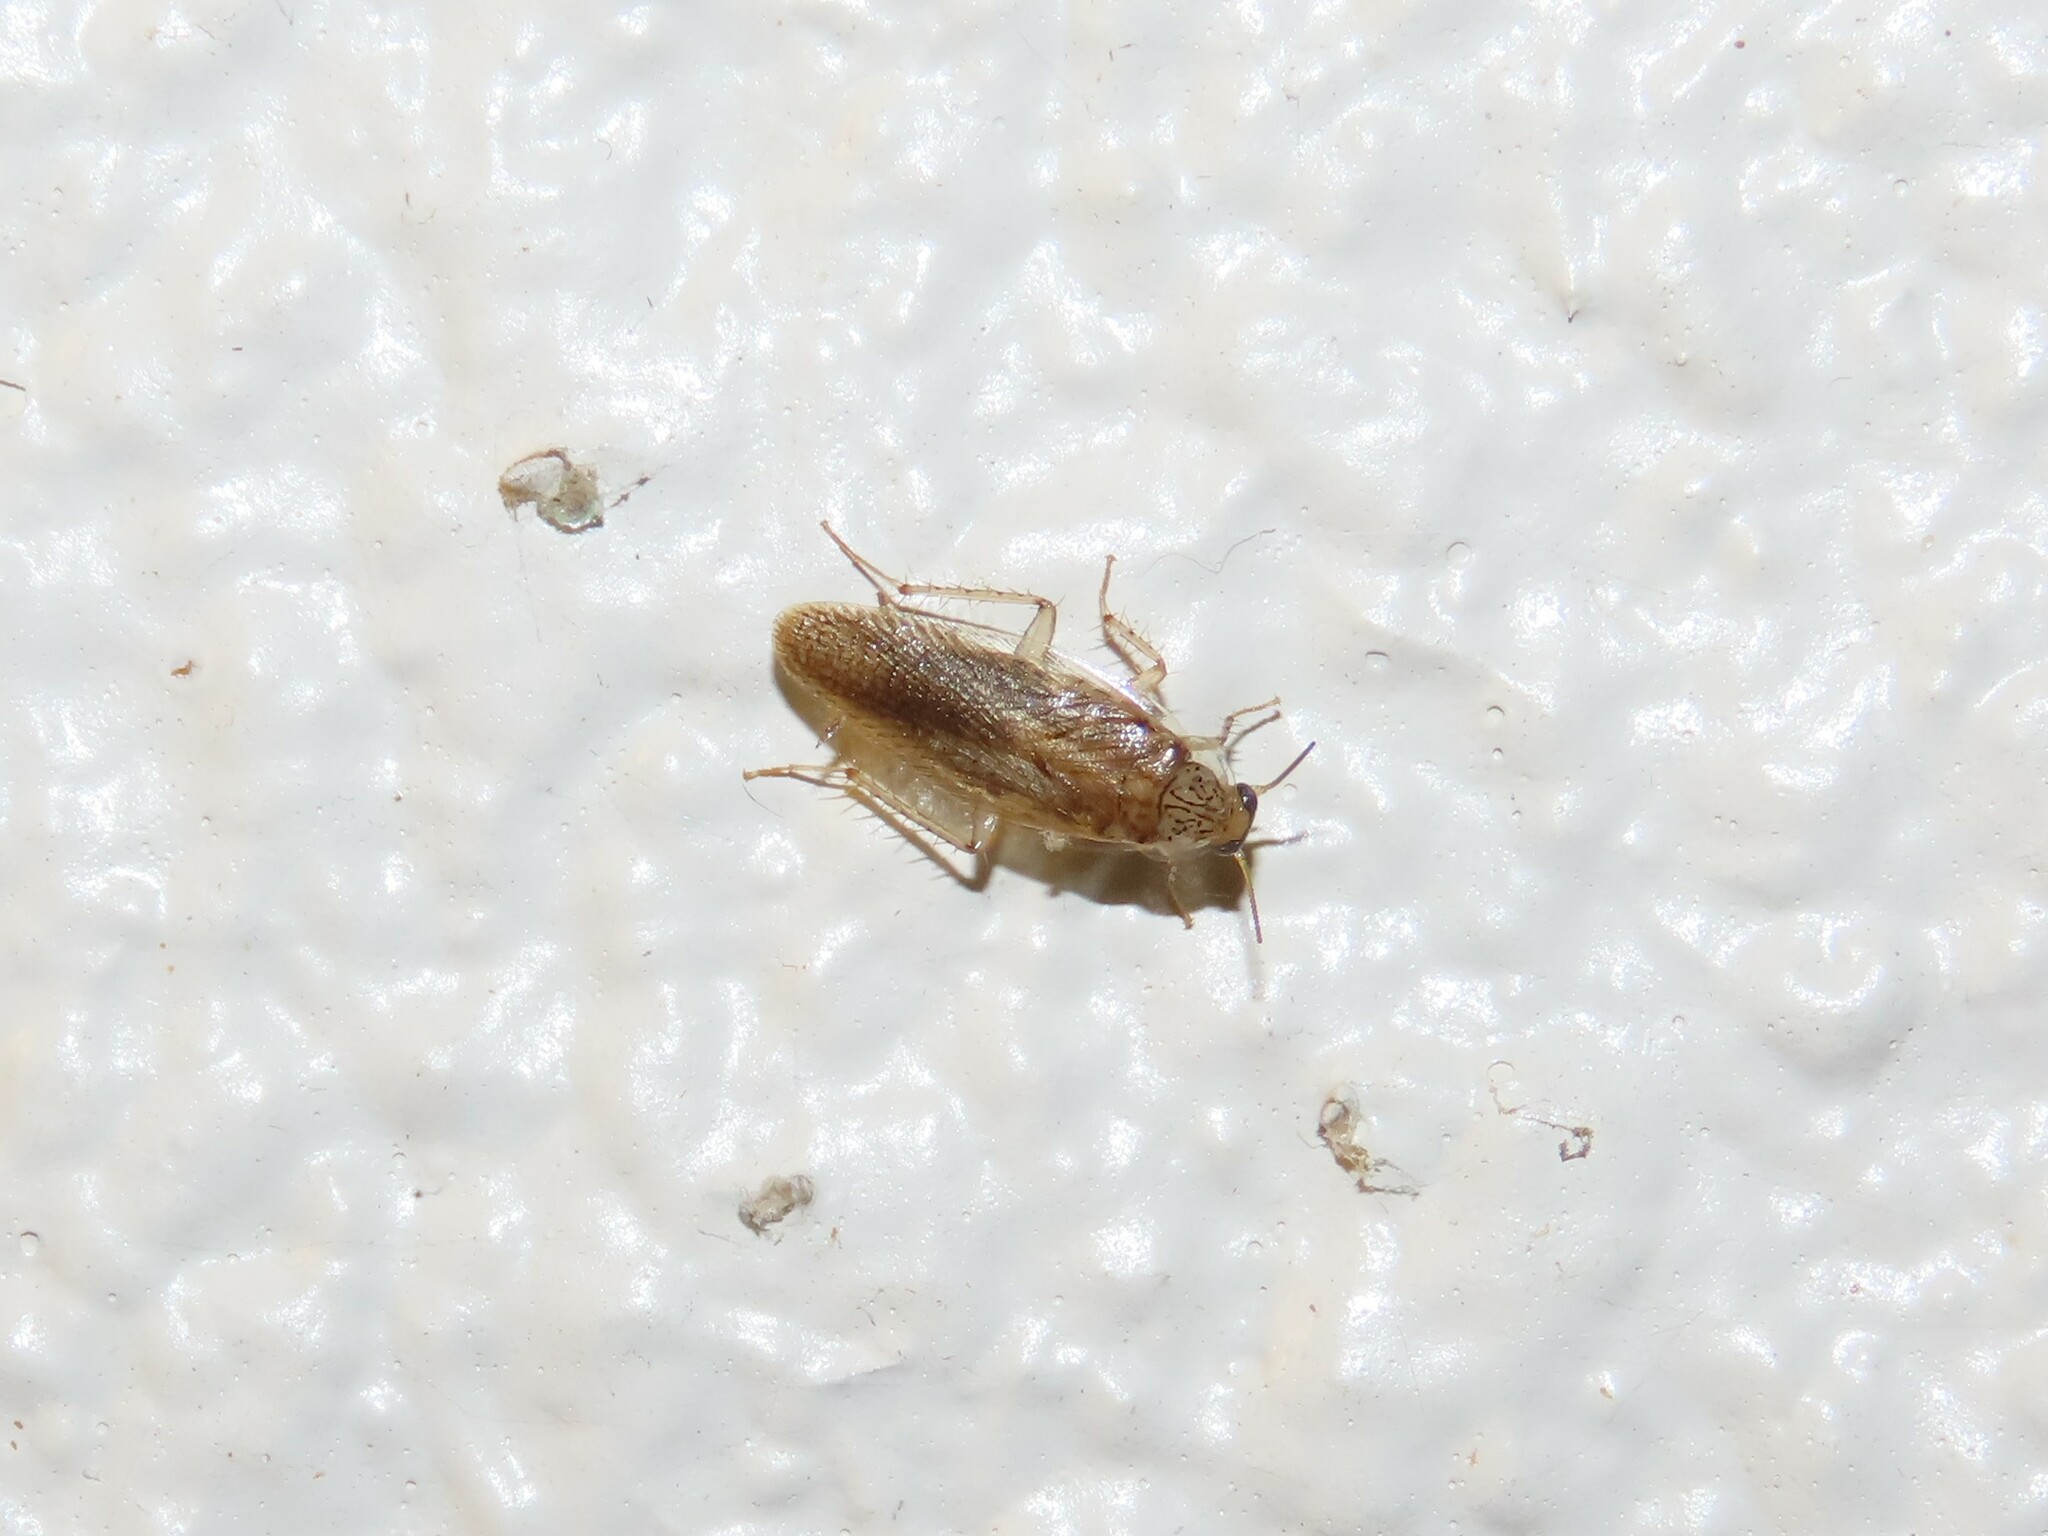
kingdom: Animalia
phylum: Arthropoda
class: Insecta
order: Blattodea
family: Ectobiidae
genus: Neoblattella
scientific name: Neoblattella detersa
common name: Wood cockroach
